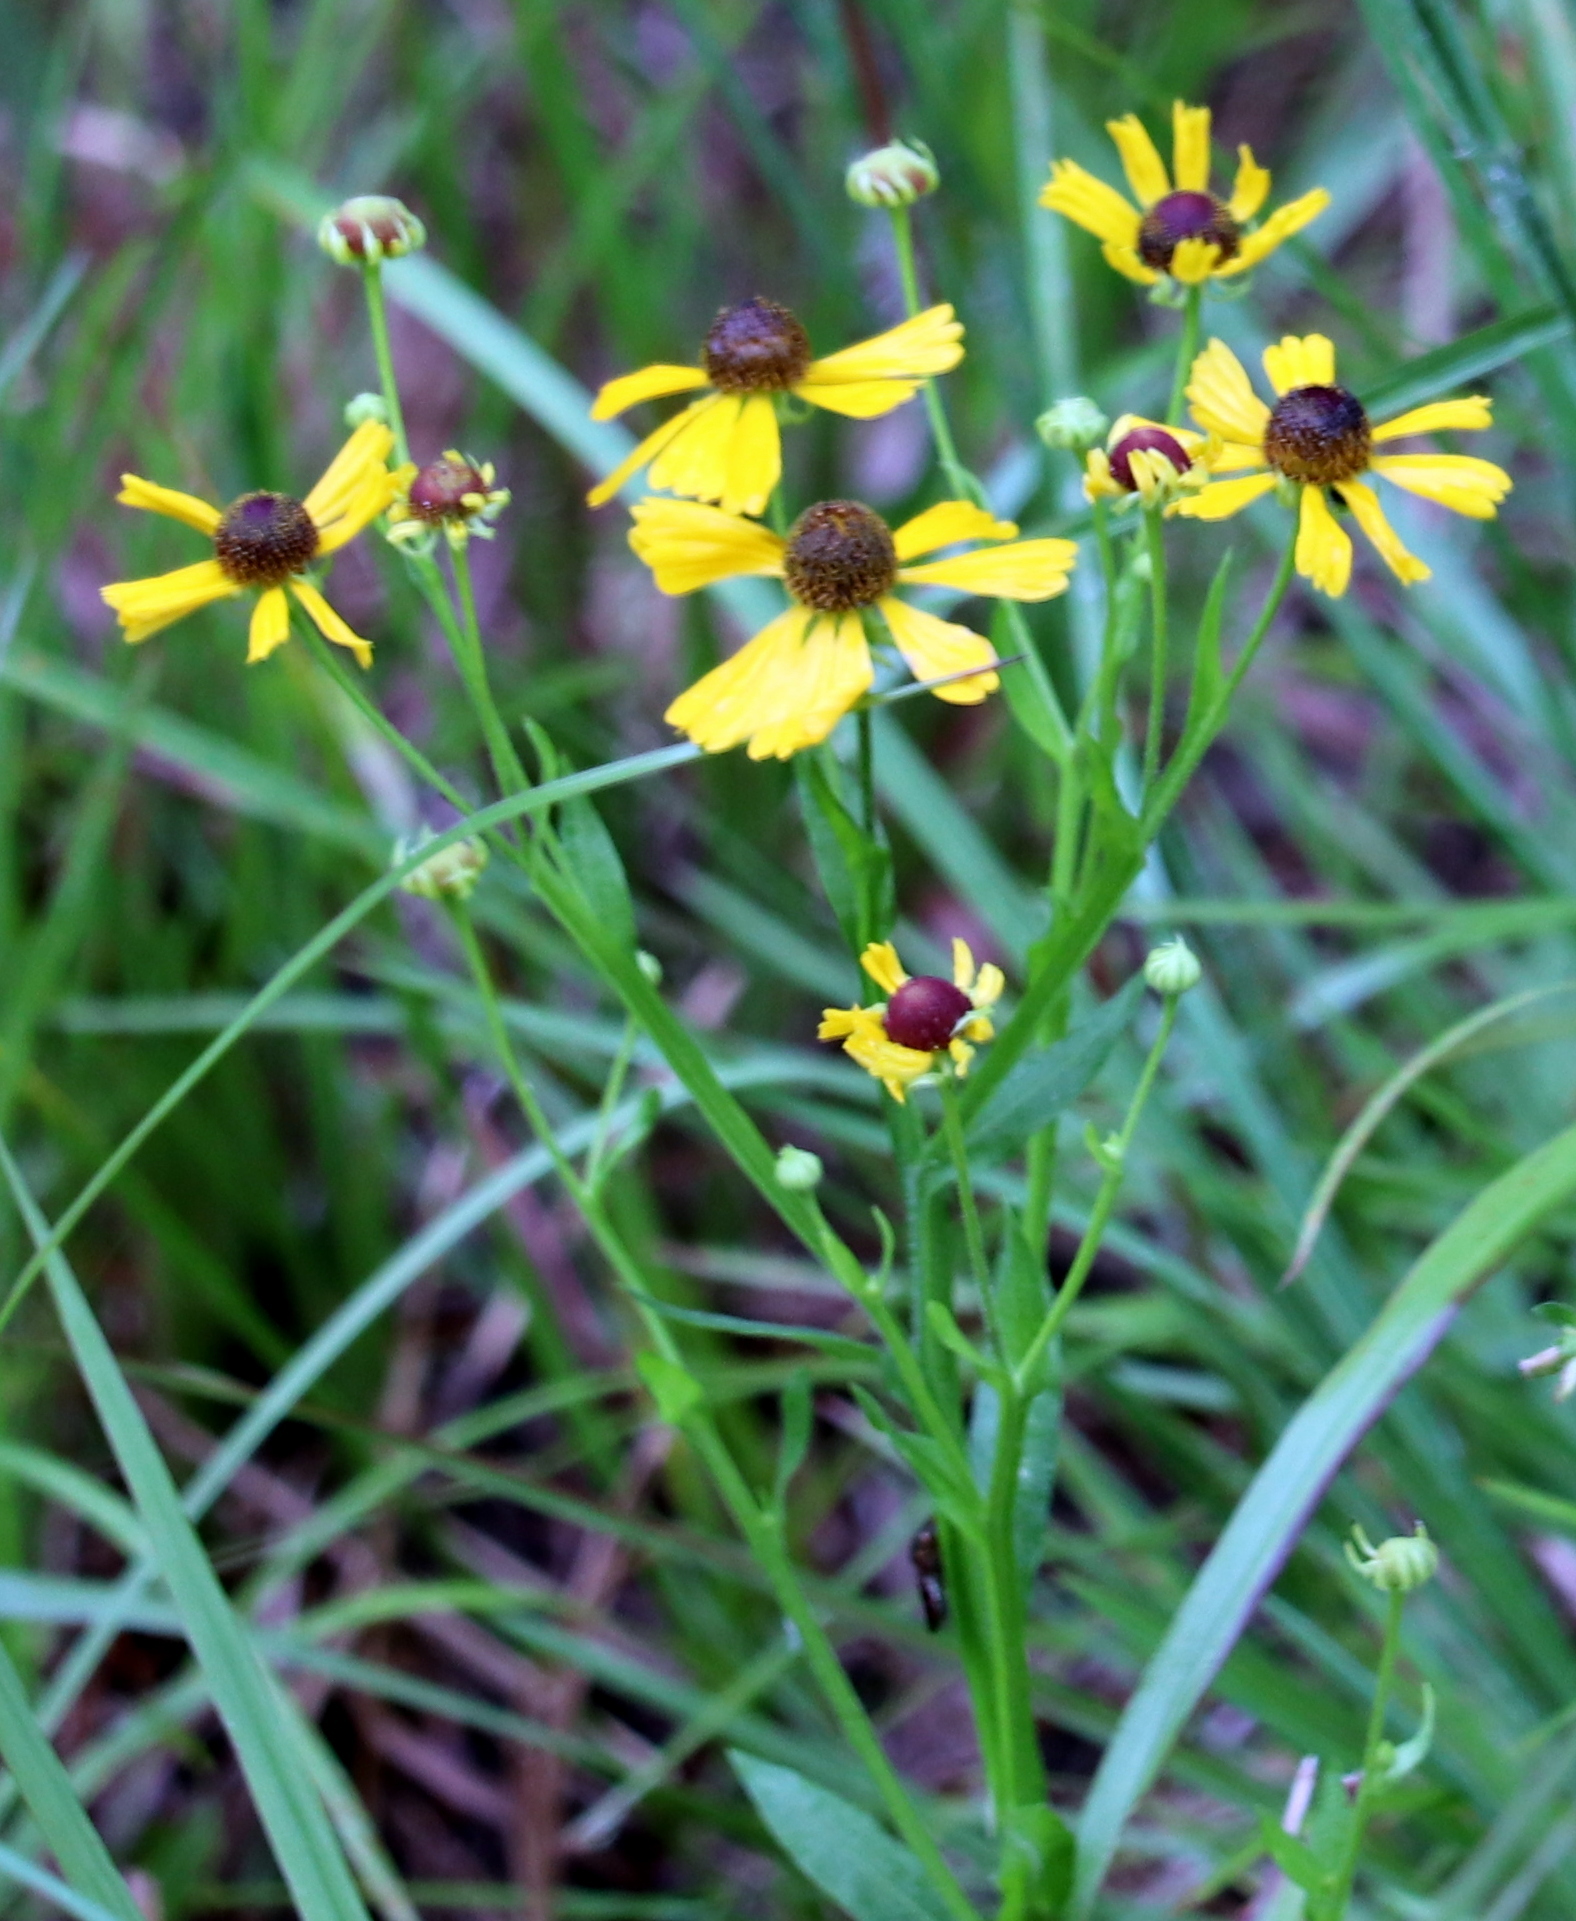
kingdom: Plantae
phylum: Tracheophyta
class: Magnoliopsida
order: Asterales
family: Asteraceae
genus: Helenium
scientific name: Helenium flexuosum
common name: Naked-flowered sneezeweed
